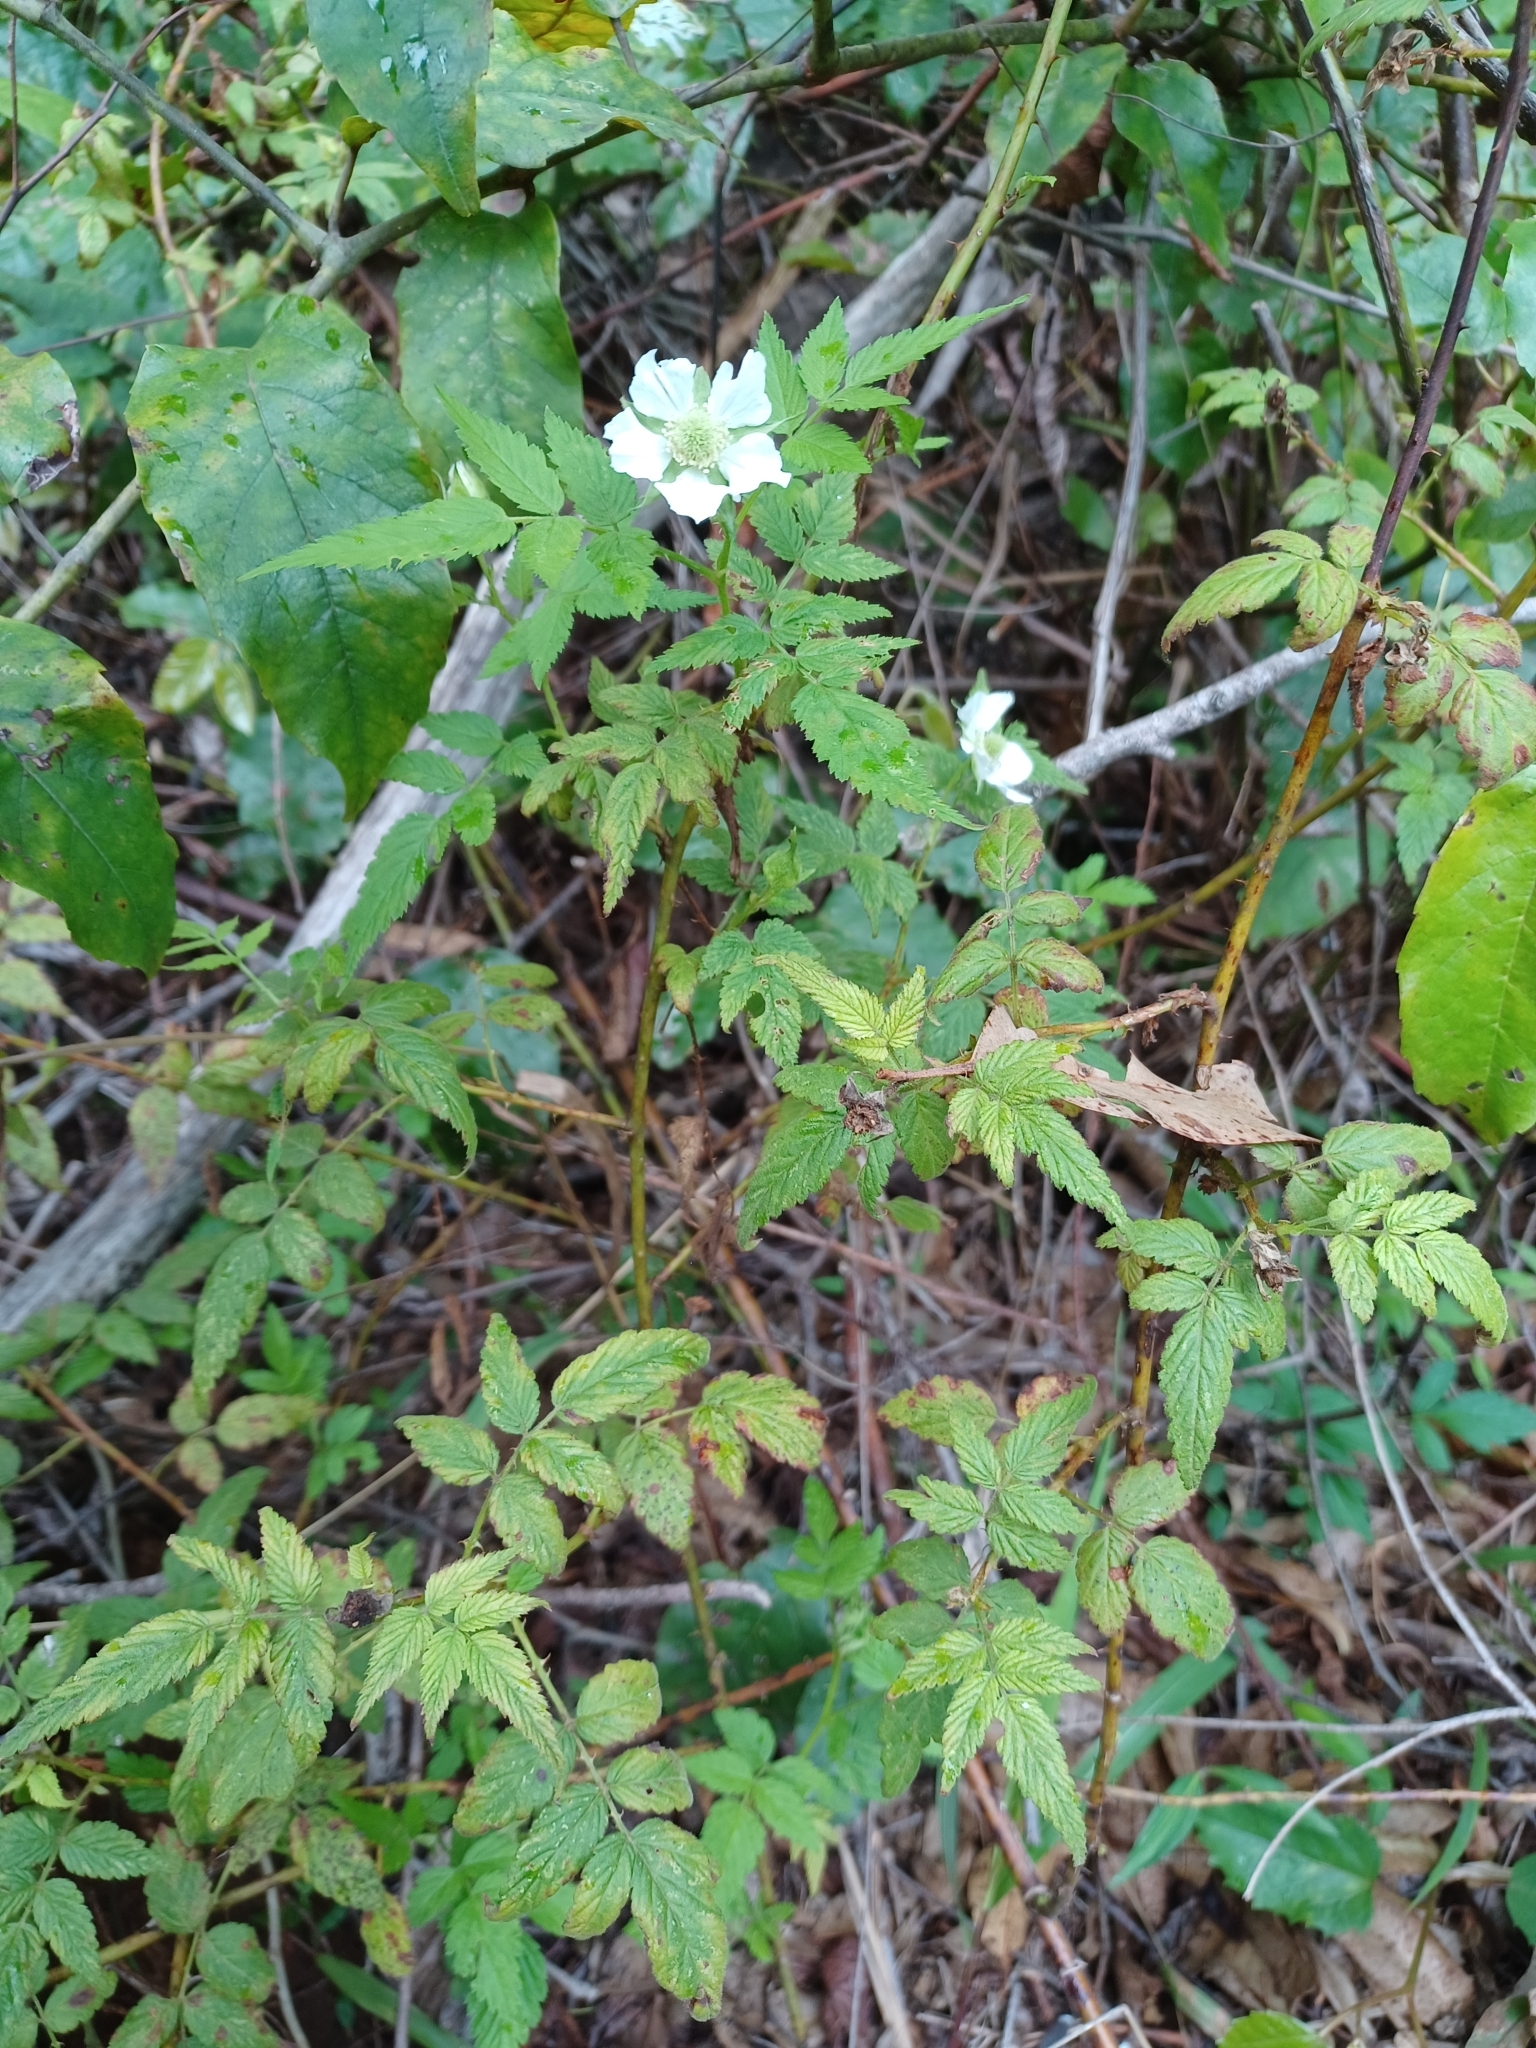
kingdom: Plantae
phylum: Tracheophyta
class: Magnoliopsida
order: Rosales
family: Rosaceae
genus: Rubus
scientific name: Rubus rosifolius
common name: Roseleaf raspberry
